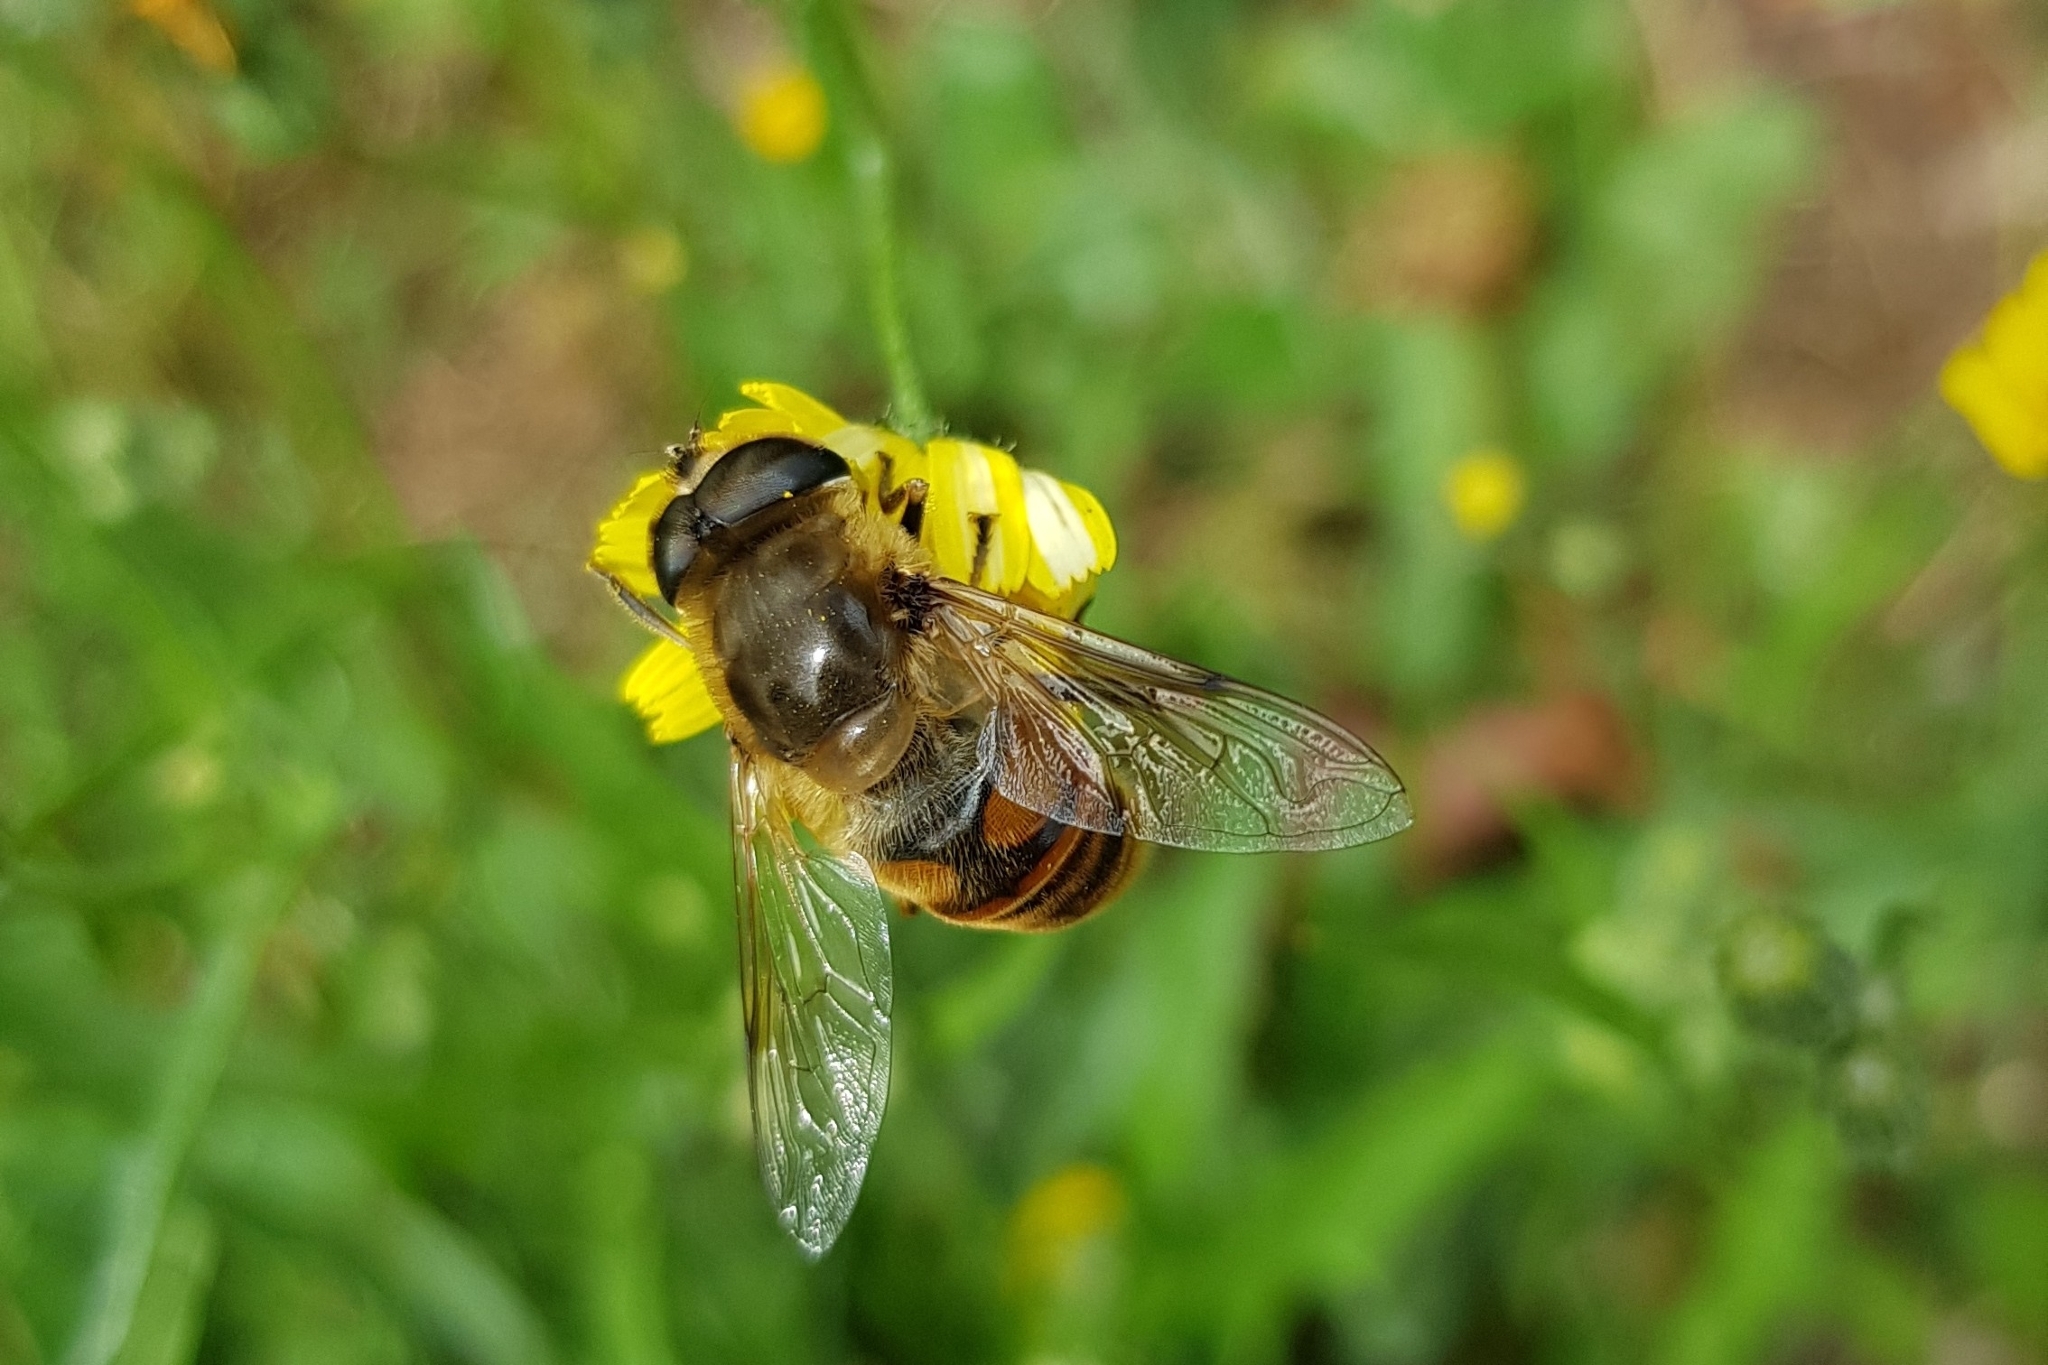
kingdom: Animalia
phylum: Arthropoda
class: Insecta
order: Diptera
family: Syrphidae
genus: Eristalis
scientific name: Eristalis tenax
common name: Drone fly
